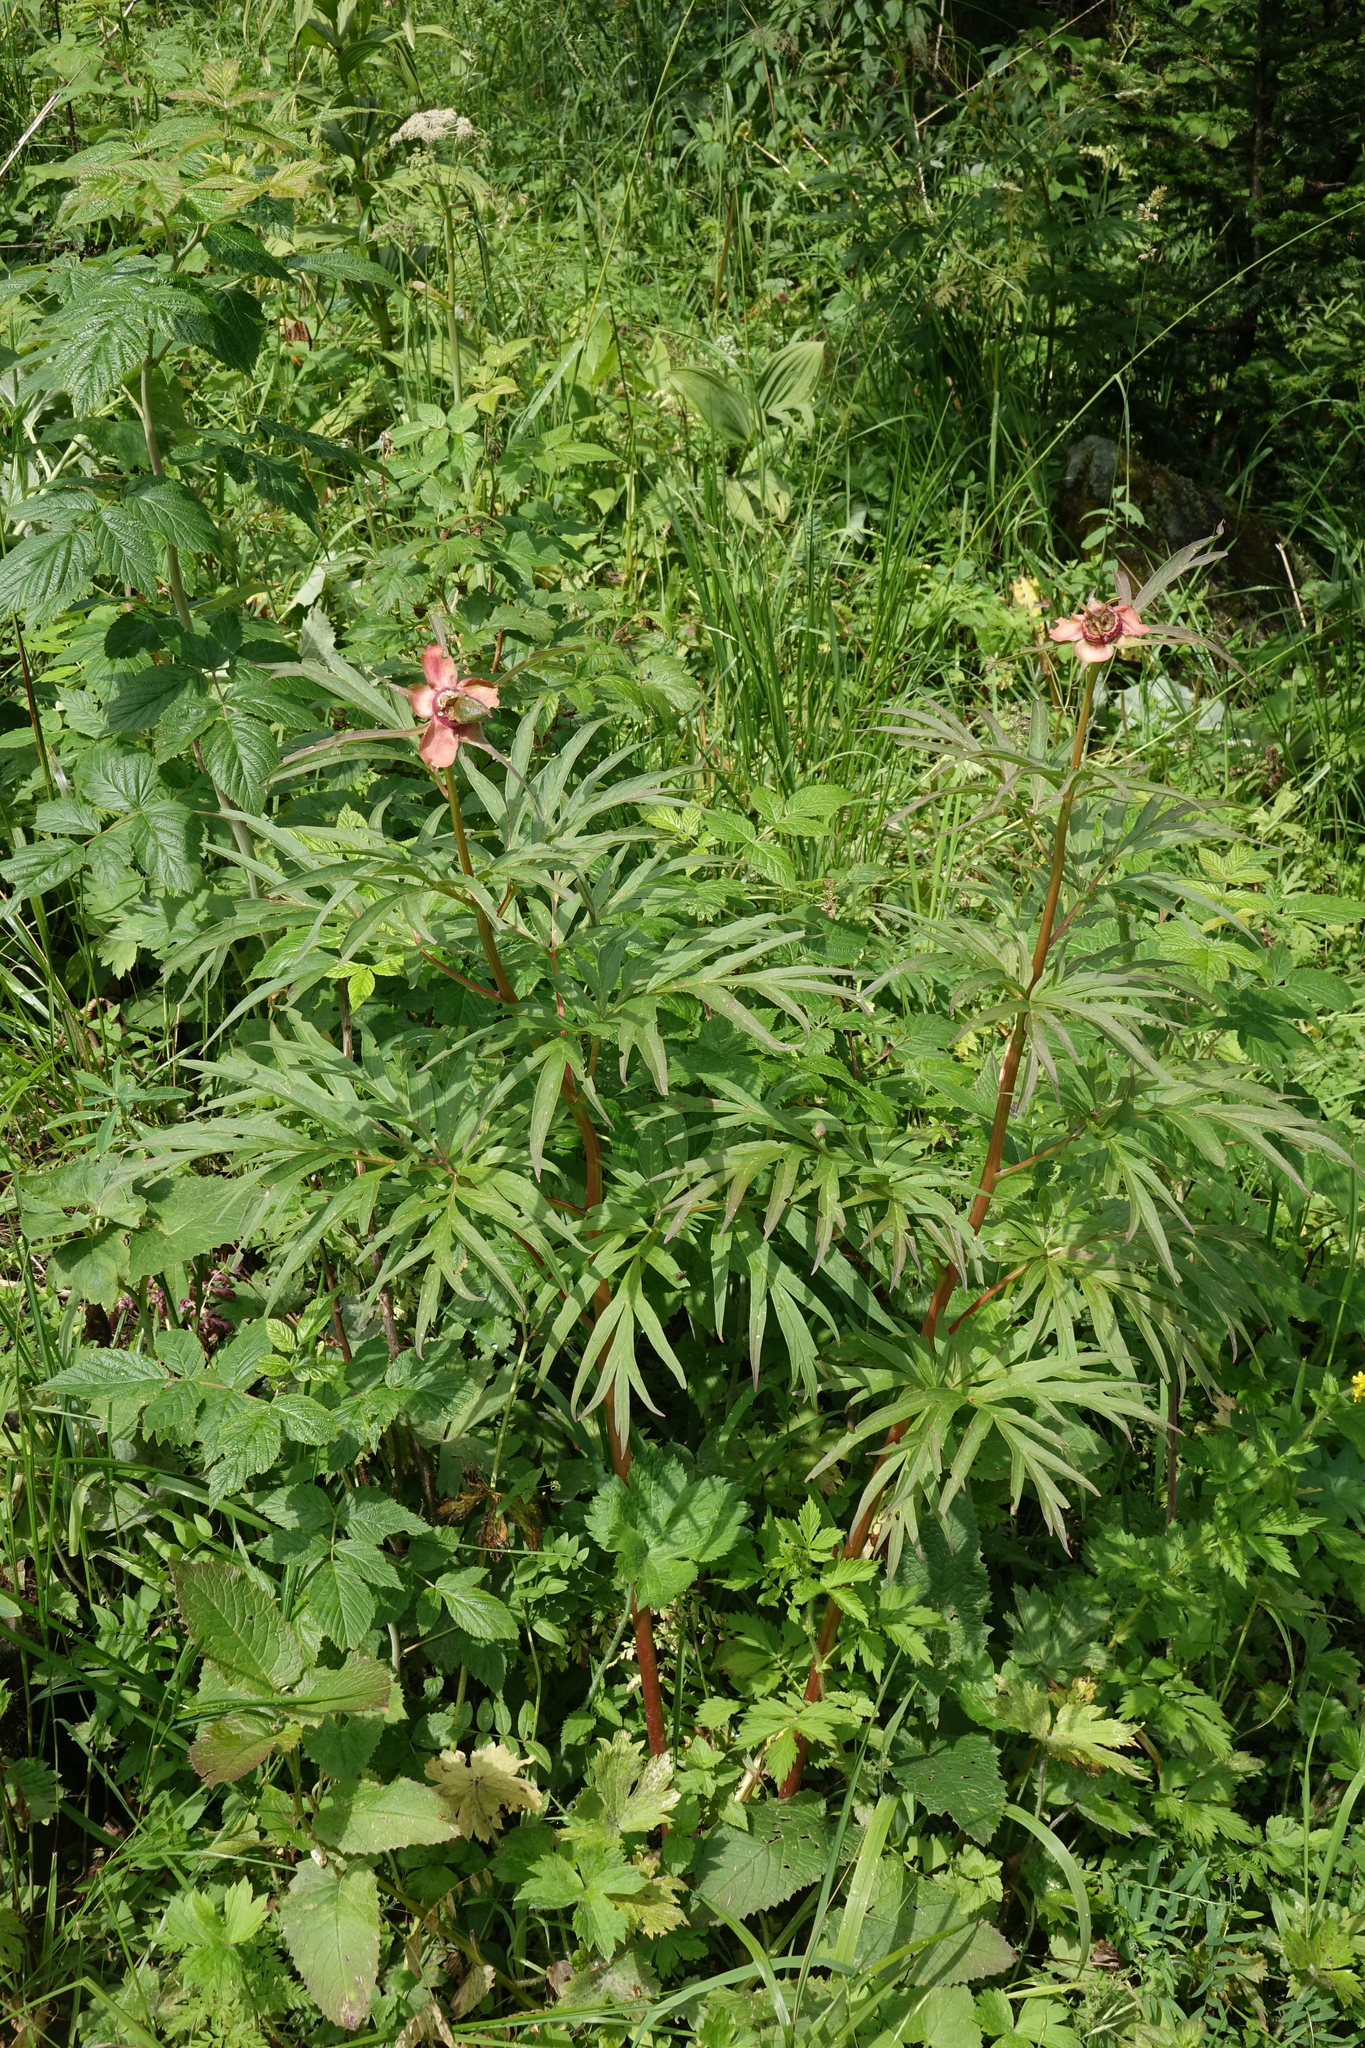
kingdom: Plantae
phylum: Tracheophyta
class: Magnoliopsida
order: Saxifragales
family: Paeoniaceae
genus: Paeonia
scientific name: Paeonia anomala
